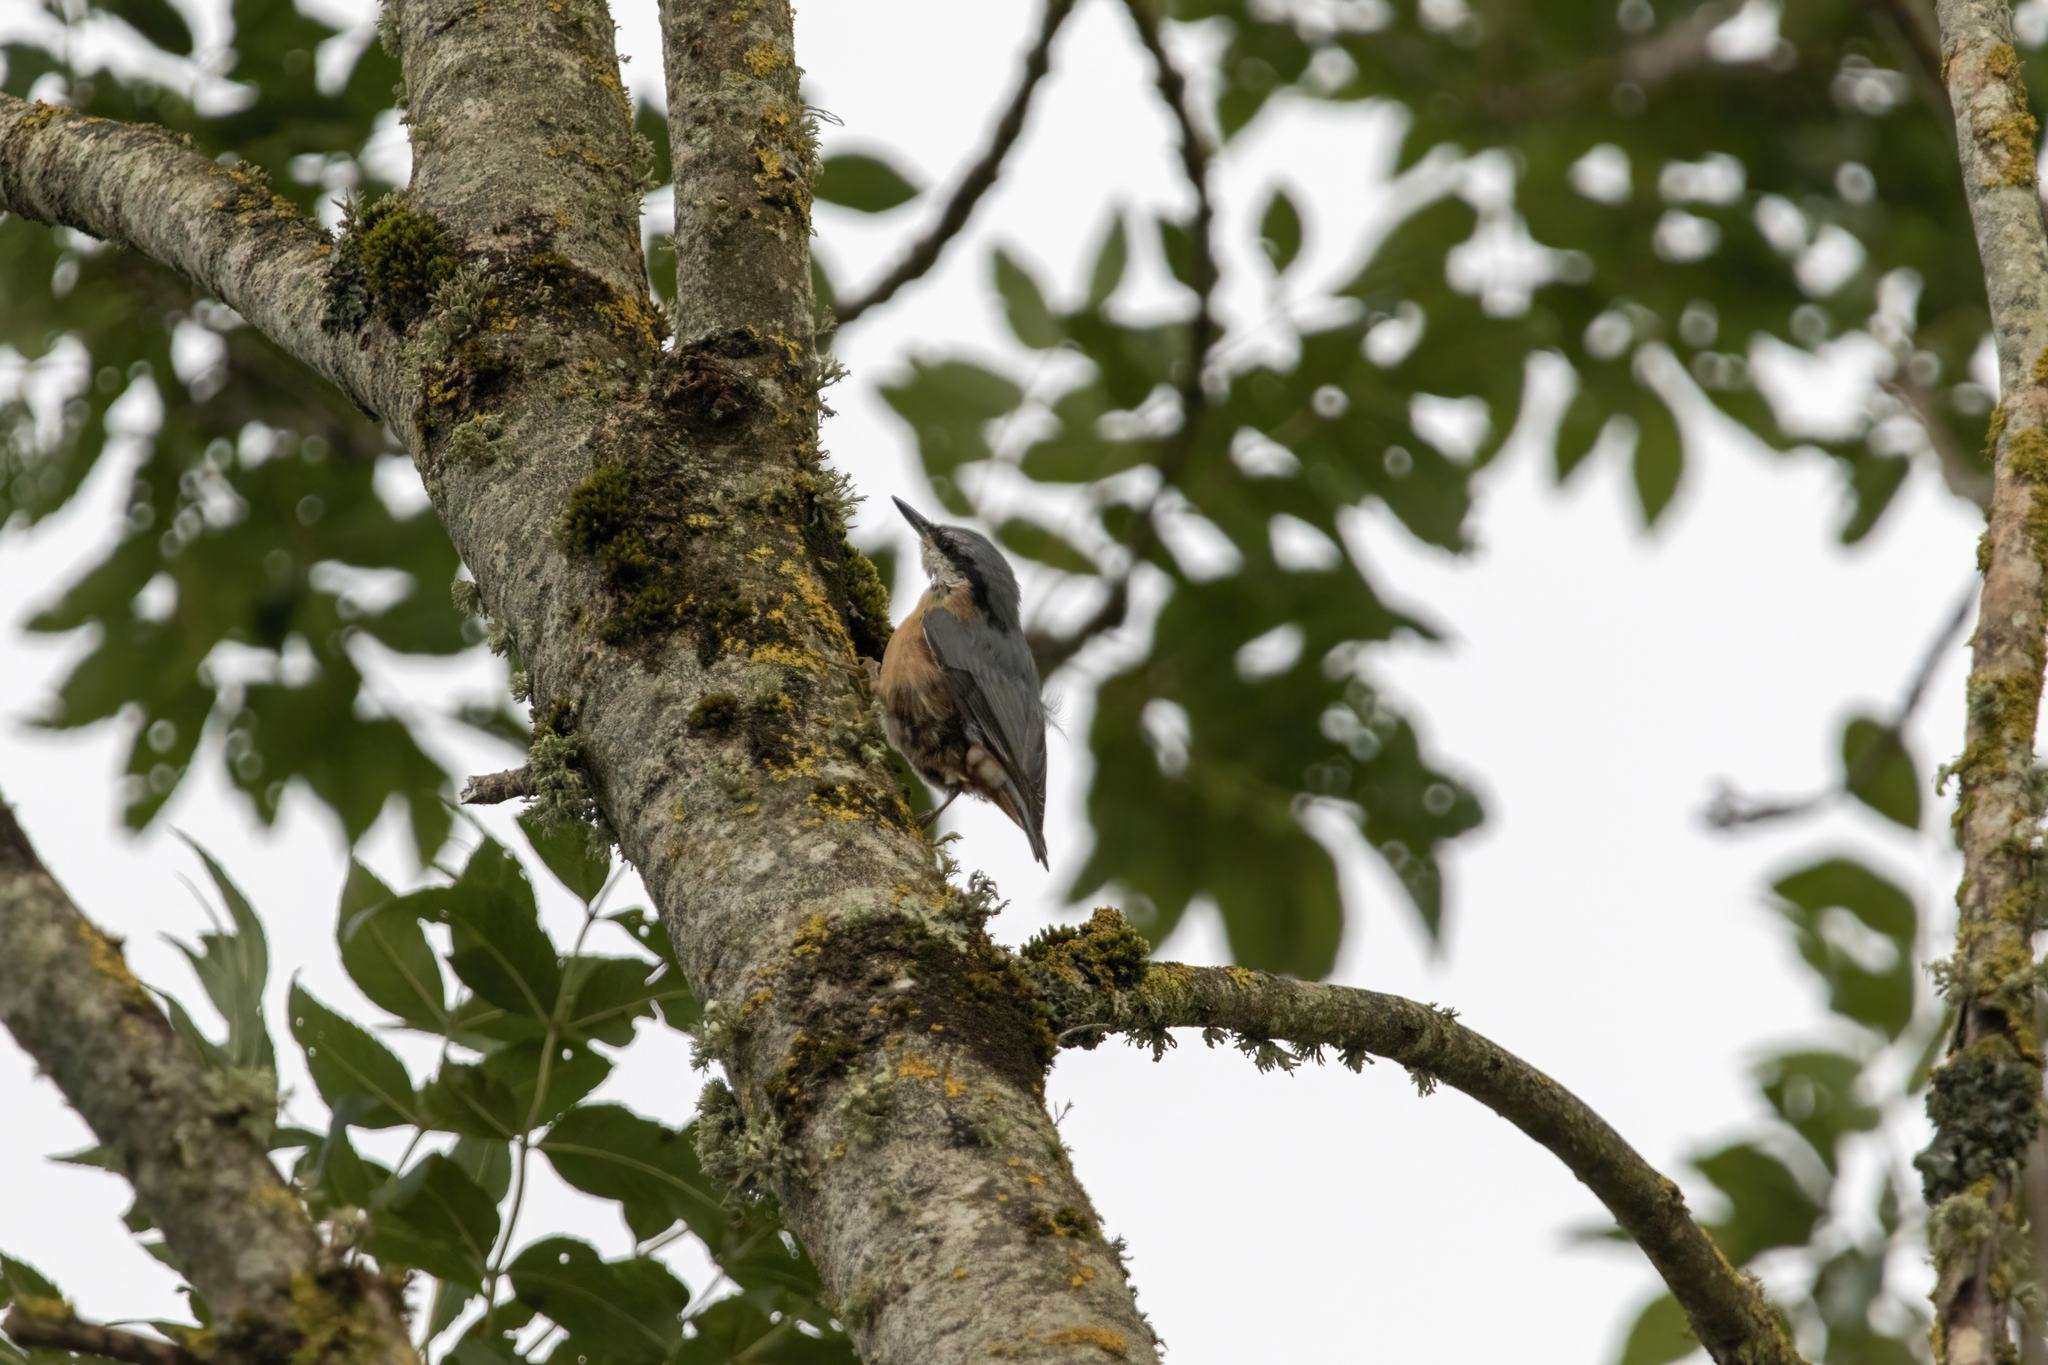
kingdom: Animalia
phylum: Chordata
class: Aves
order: Passeriformes
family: Sittidae
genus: Sitta
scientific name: Sitta europaea
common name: Eurasian nuthatch
